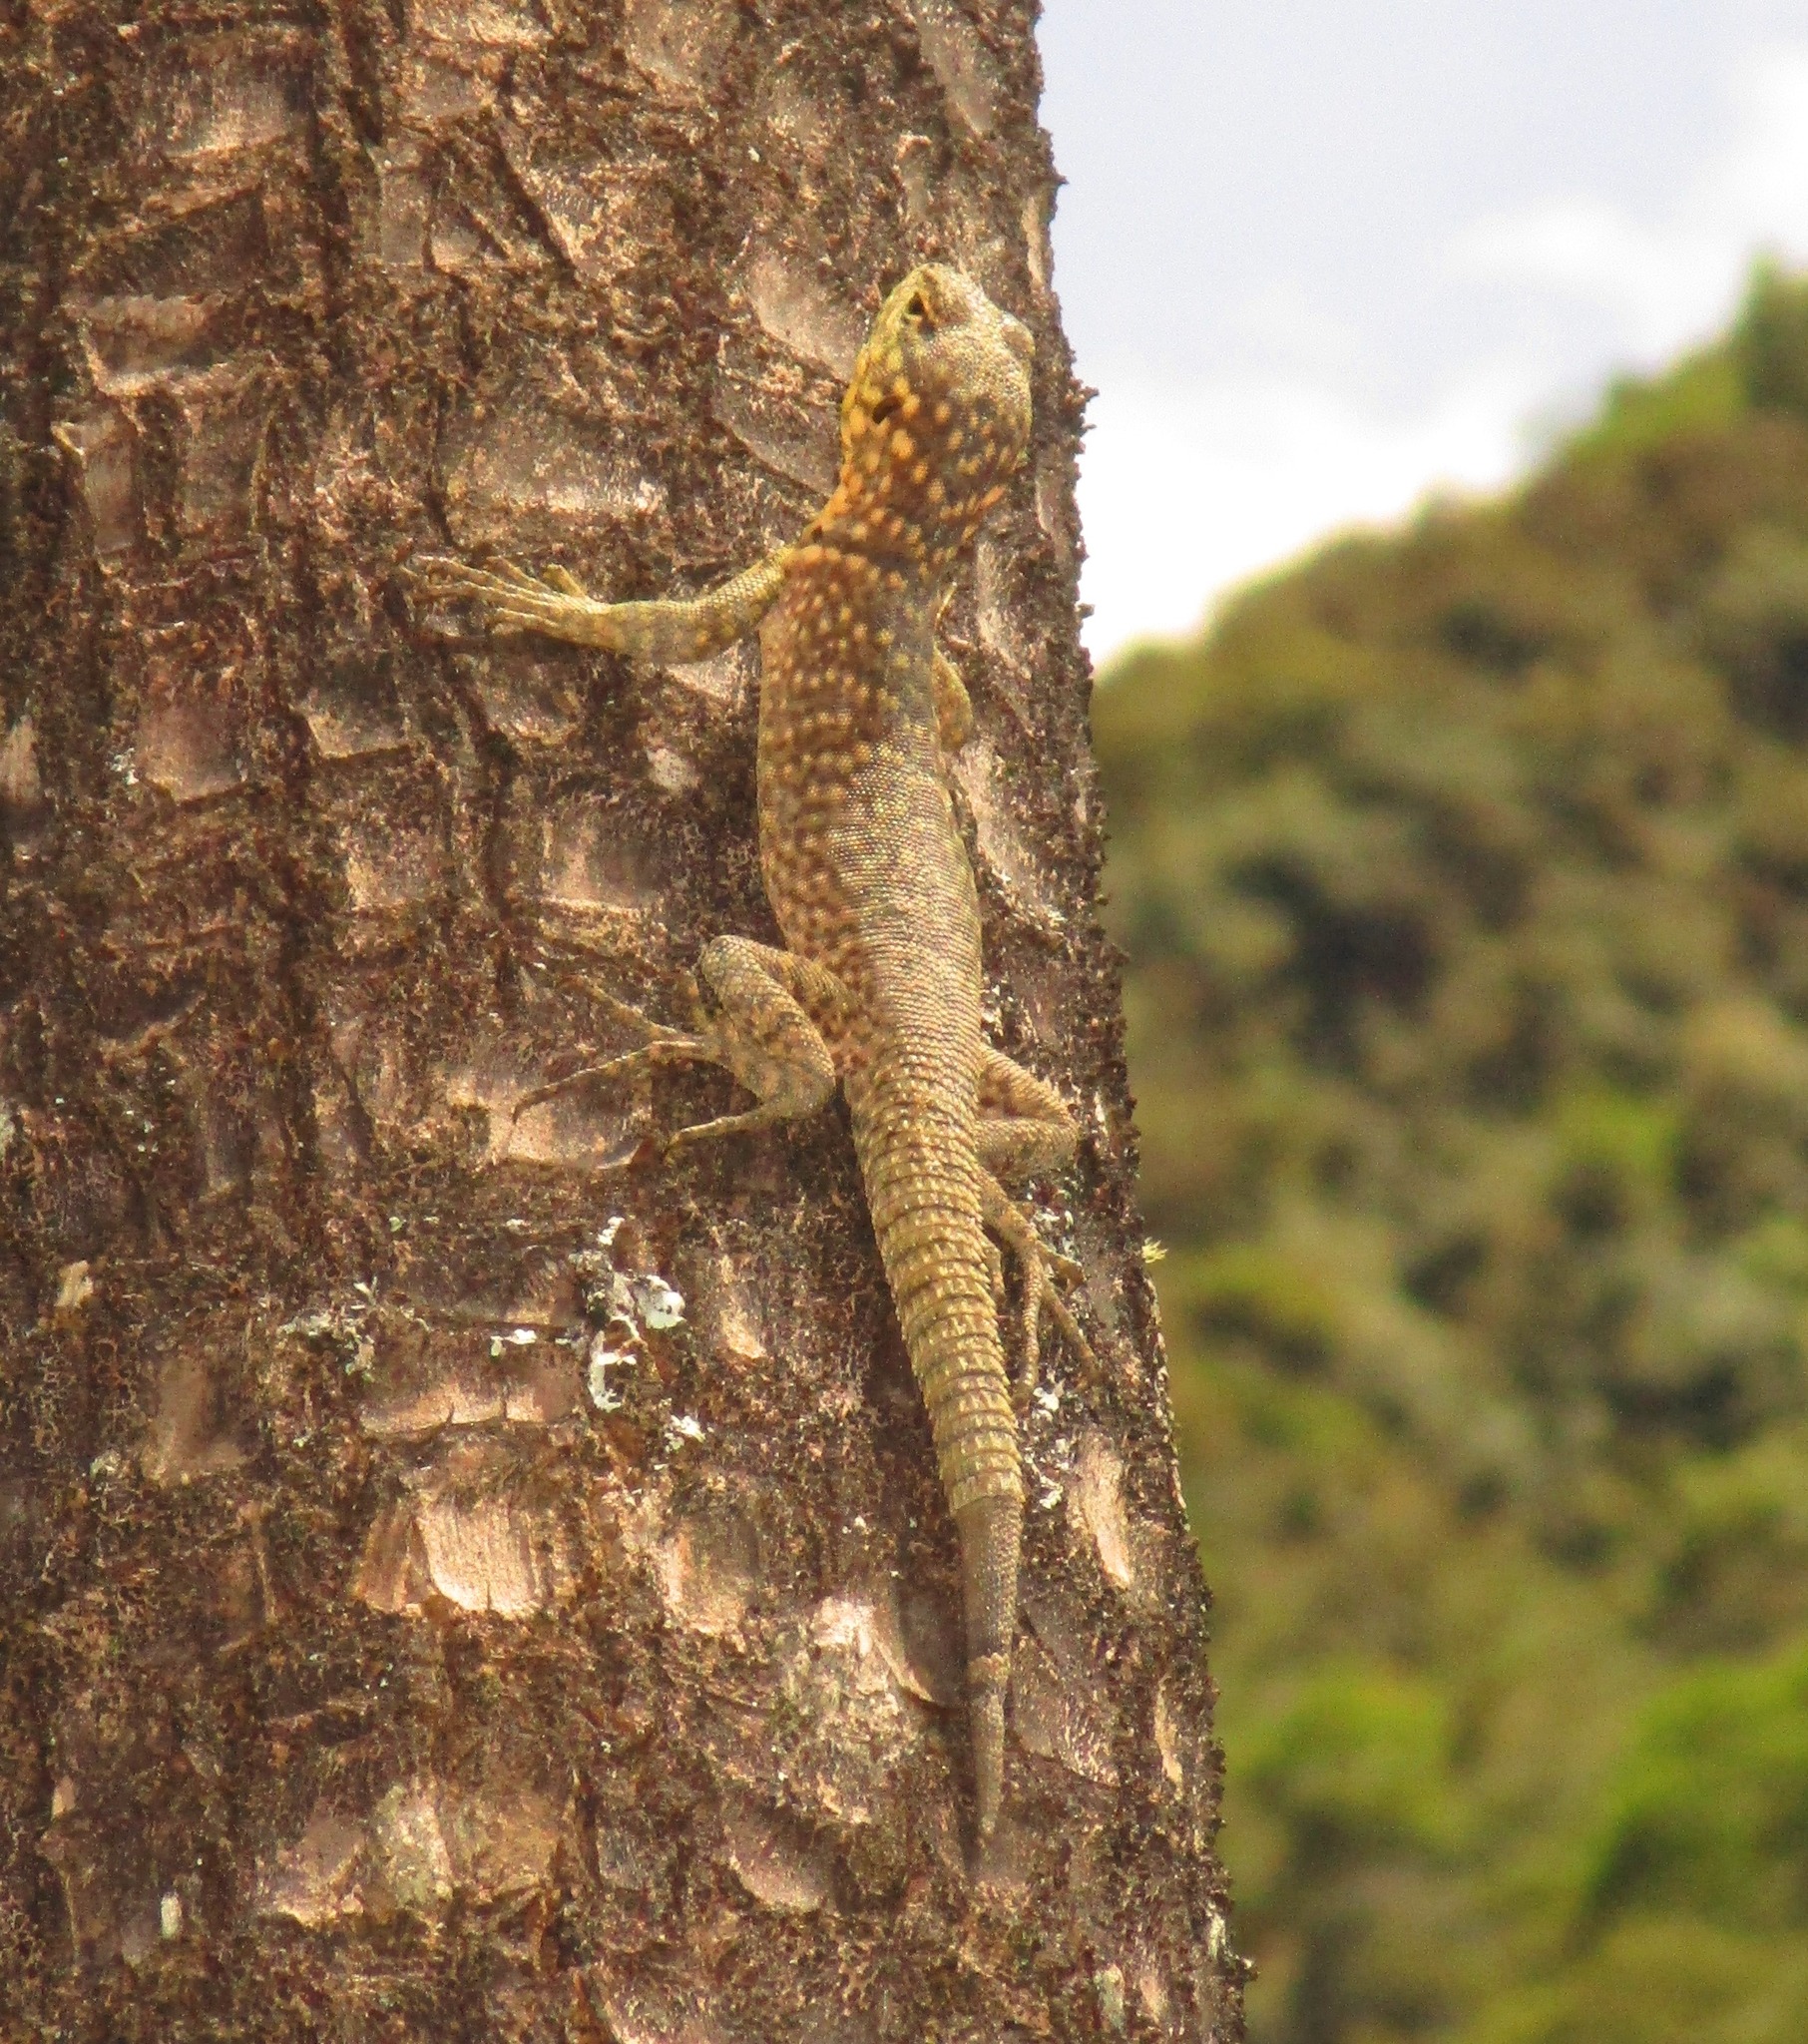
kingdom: Animalia
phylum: Chordata
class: Squamata
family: Tropiduridae
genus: Stenocercus
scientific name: Stenocercus crassicaudatus
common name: Spiny whorltail iguana
